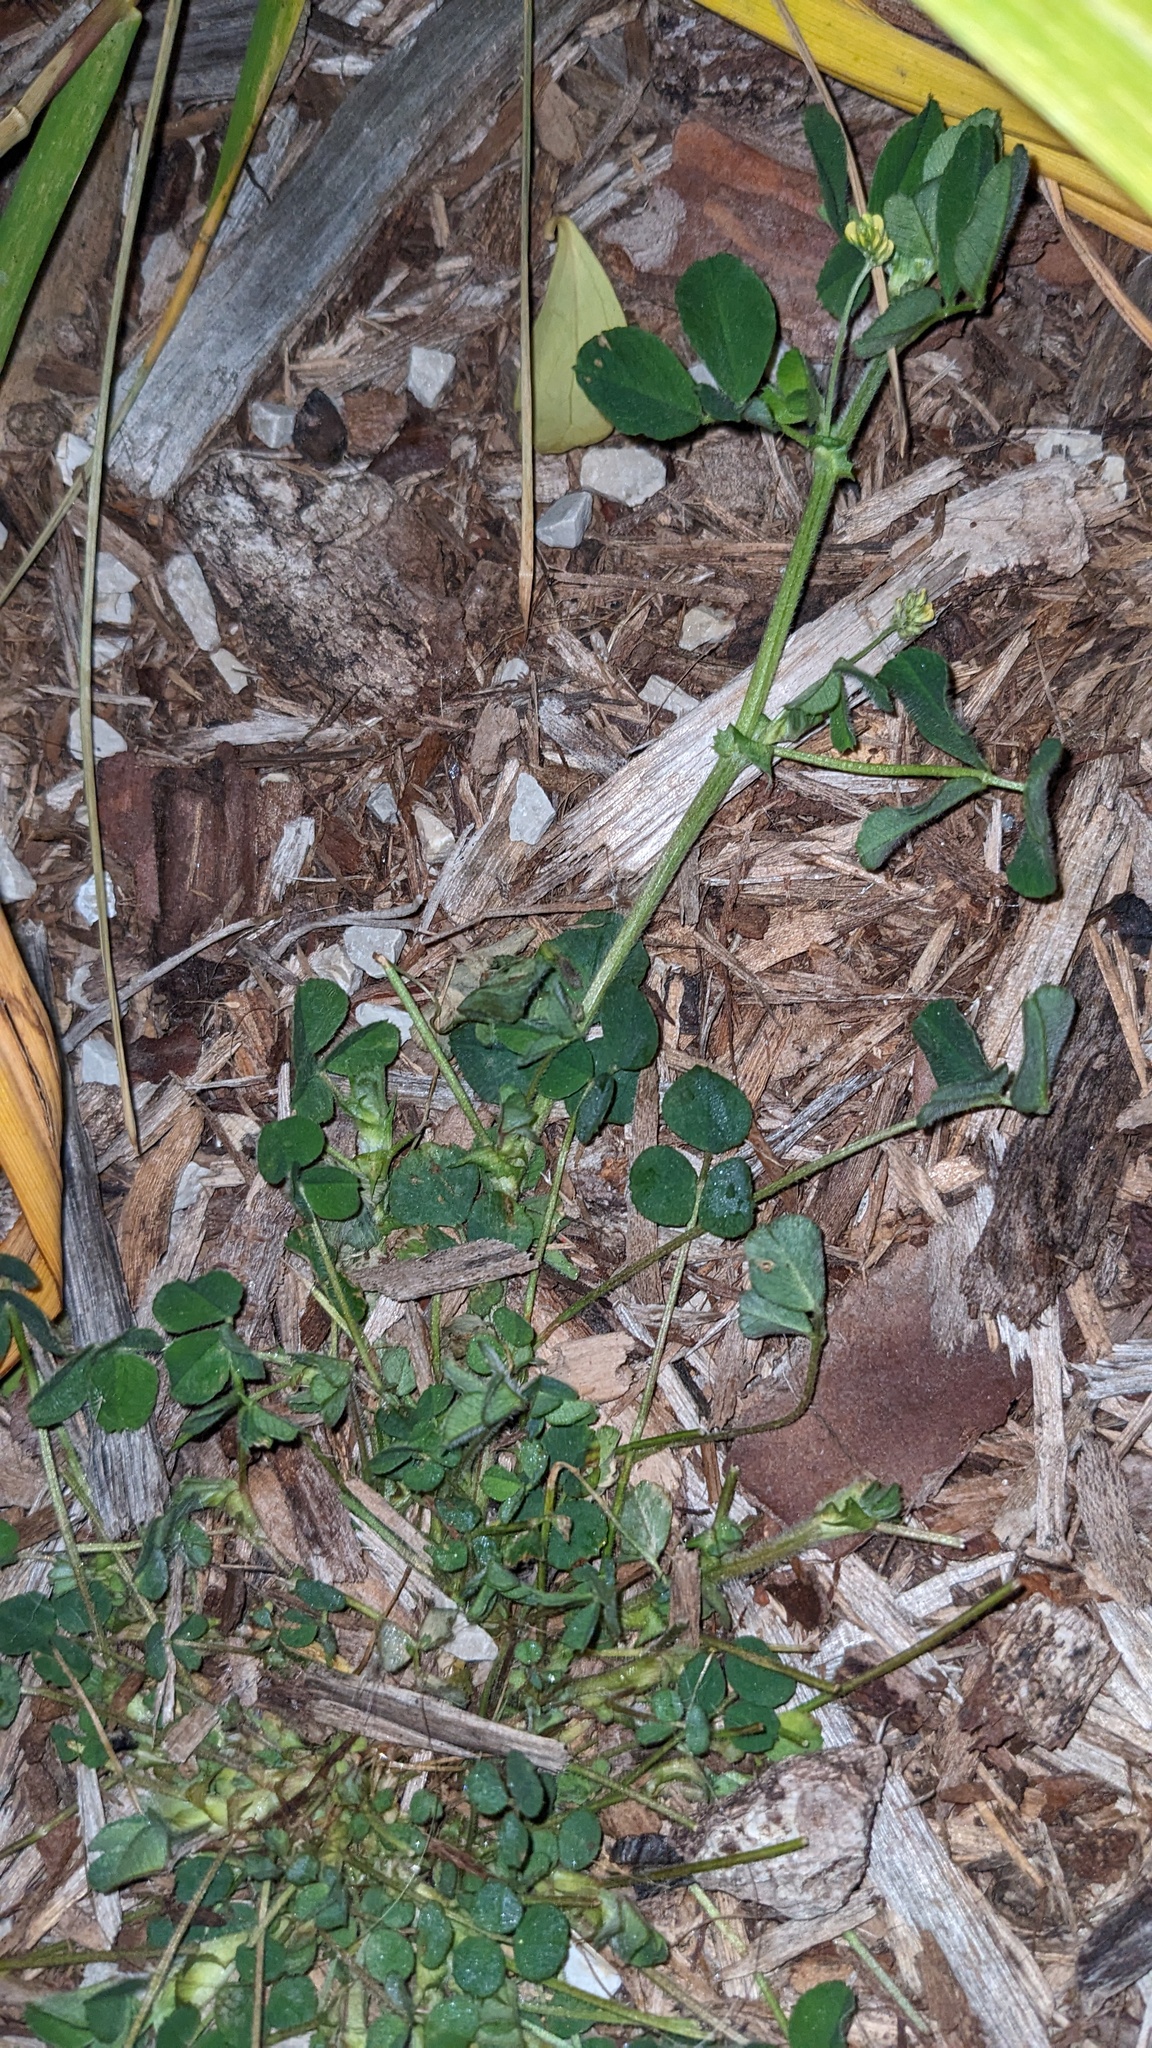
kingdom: Plantae
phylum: Tracheophyta
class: Magnoliopsida
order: Fabales
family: Fabaceae
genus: Medicago
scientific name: Medicago lupulina
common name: Black medick
